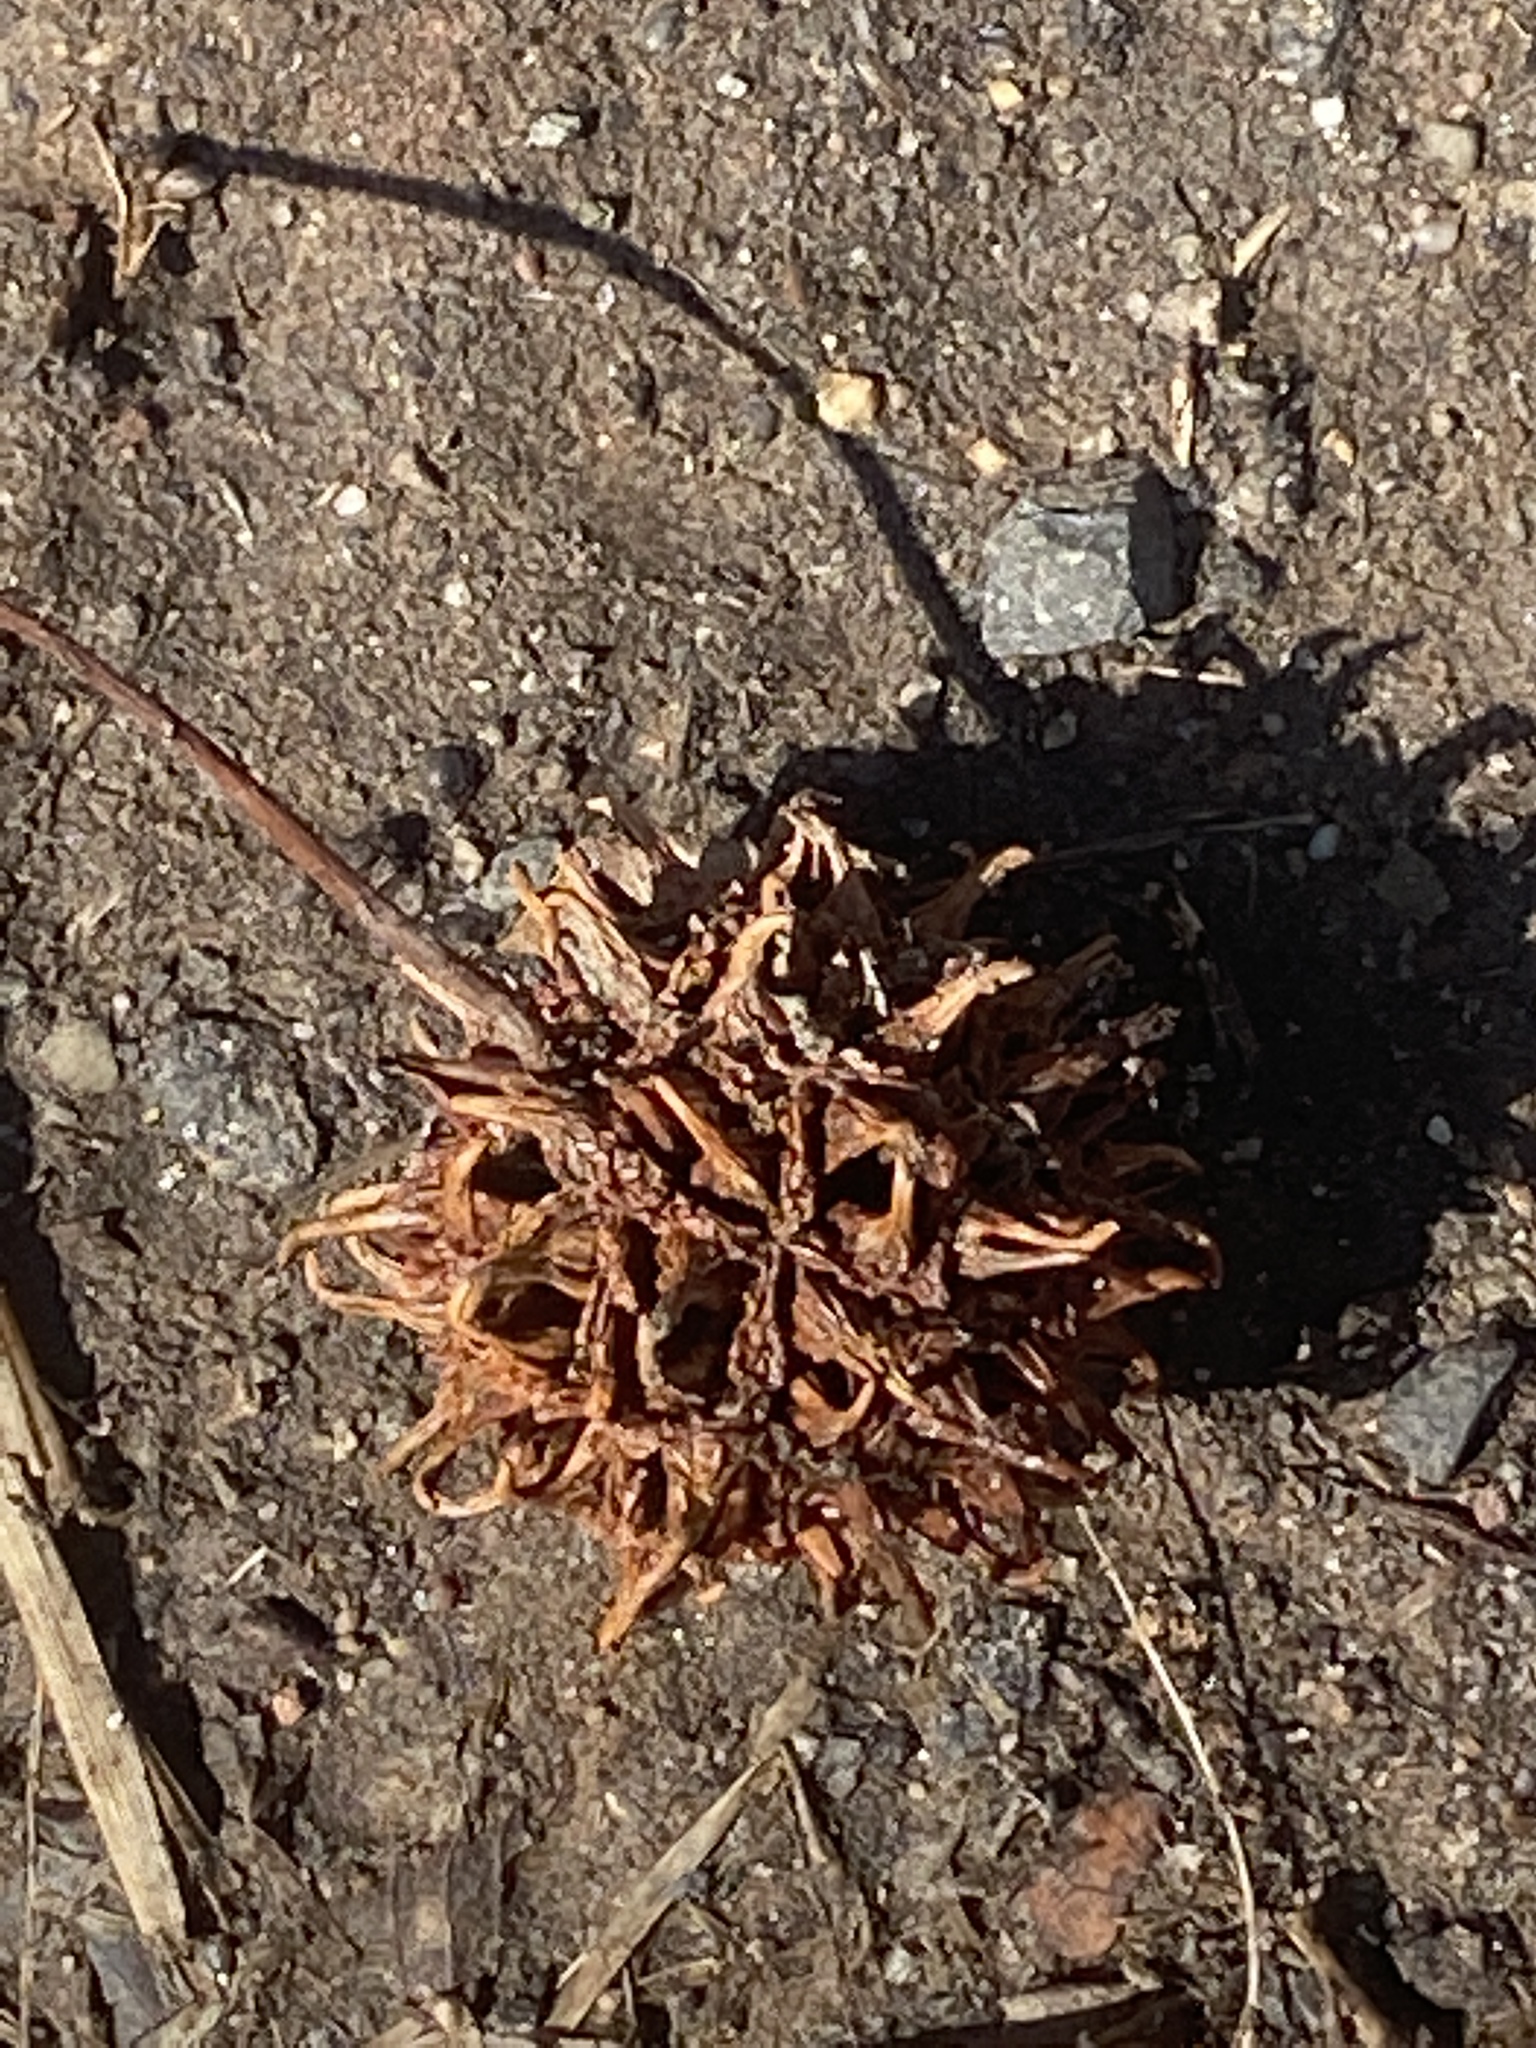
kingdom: Plantae
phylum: Tracheophyta
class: Magnoliopsida
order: Saxifragales
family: Altingiaceae
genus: Liquidambar
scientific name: Liquidambar styraciflua
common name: Sweet gum
